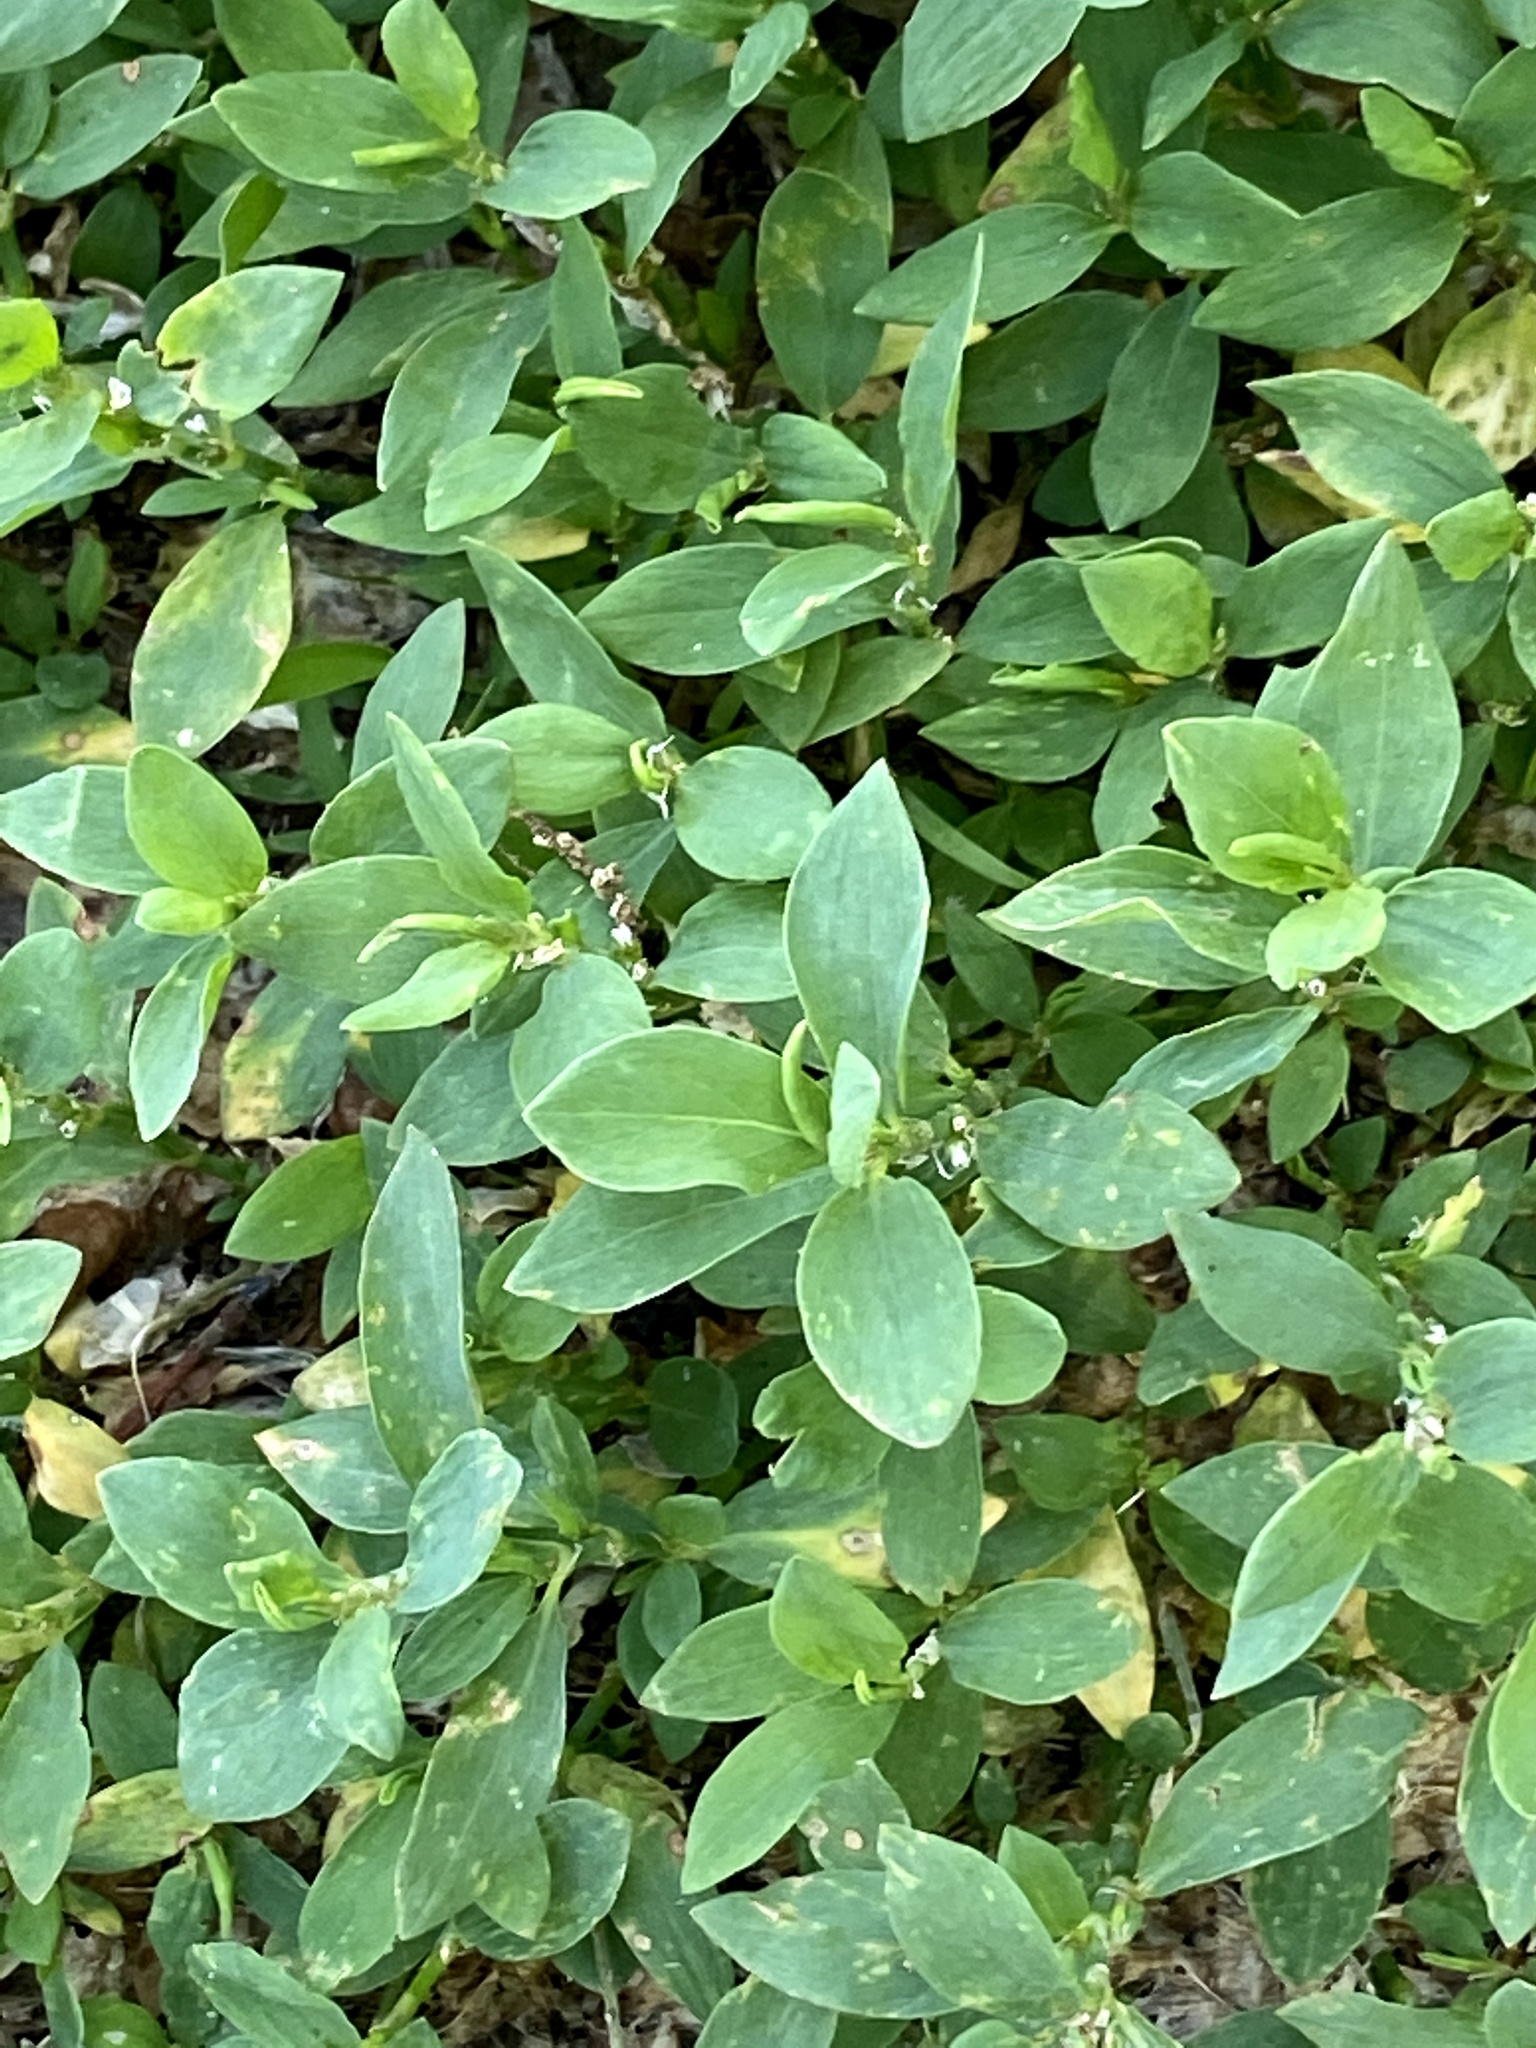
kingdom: Plantae
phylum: Tracheophyta
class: Magnoliopsida
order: Caryophyllales
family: Polygonaceae
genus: Polygonum
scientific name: Polygonum aviculare
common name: Prostrate knotweed
